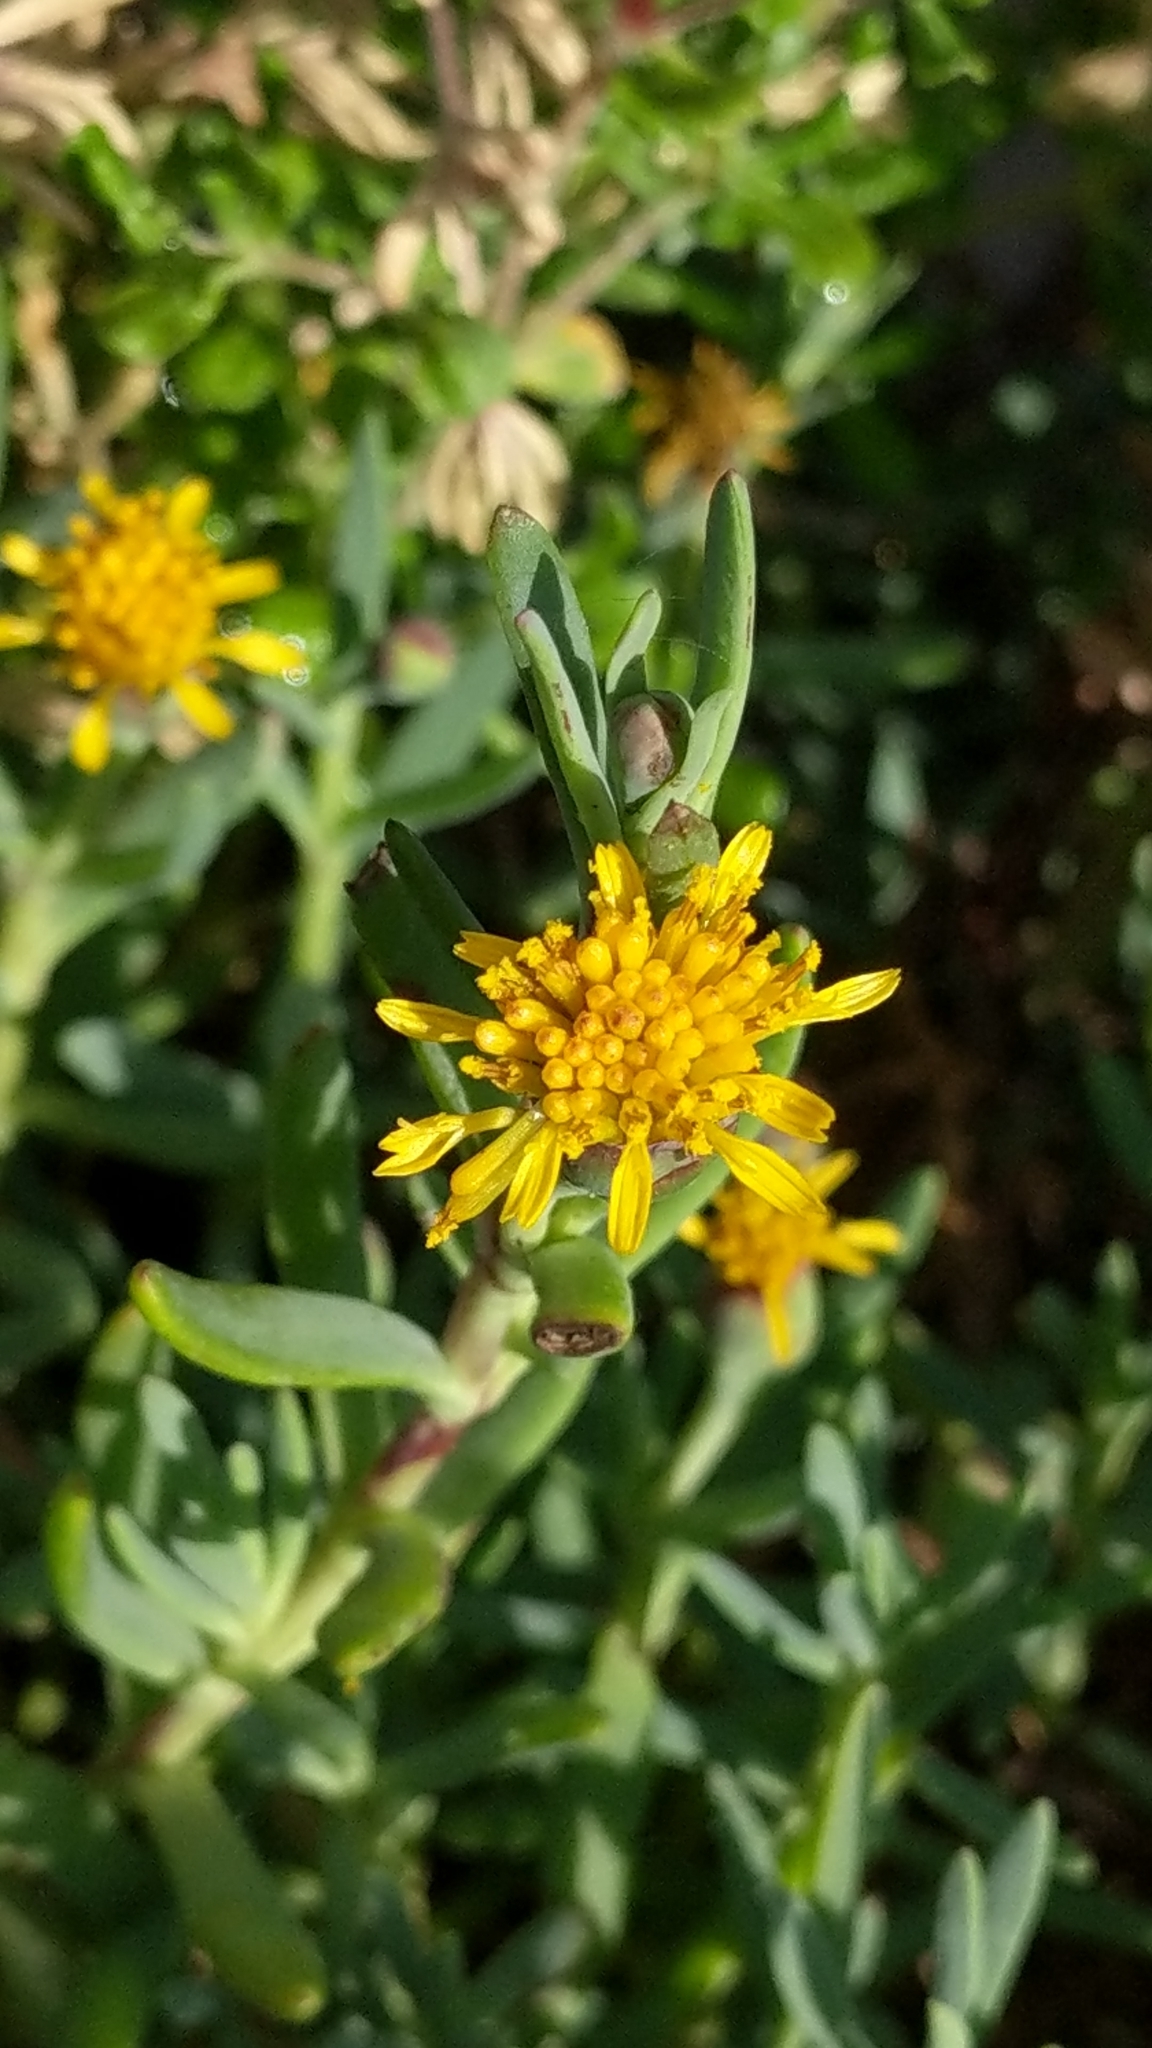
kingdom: Plantae
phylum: Tracheophyta
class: Magnoliopsida
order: Asterales
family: Asteraceae
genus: Jaumea
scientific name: Jaumea carnosa
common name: Fleshy jaumea
